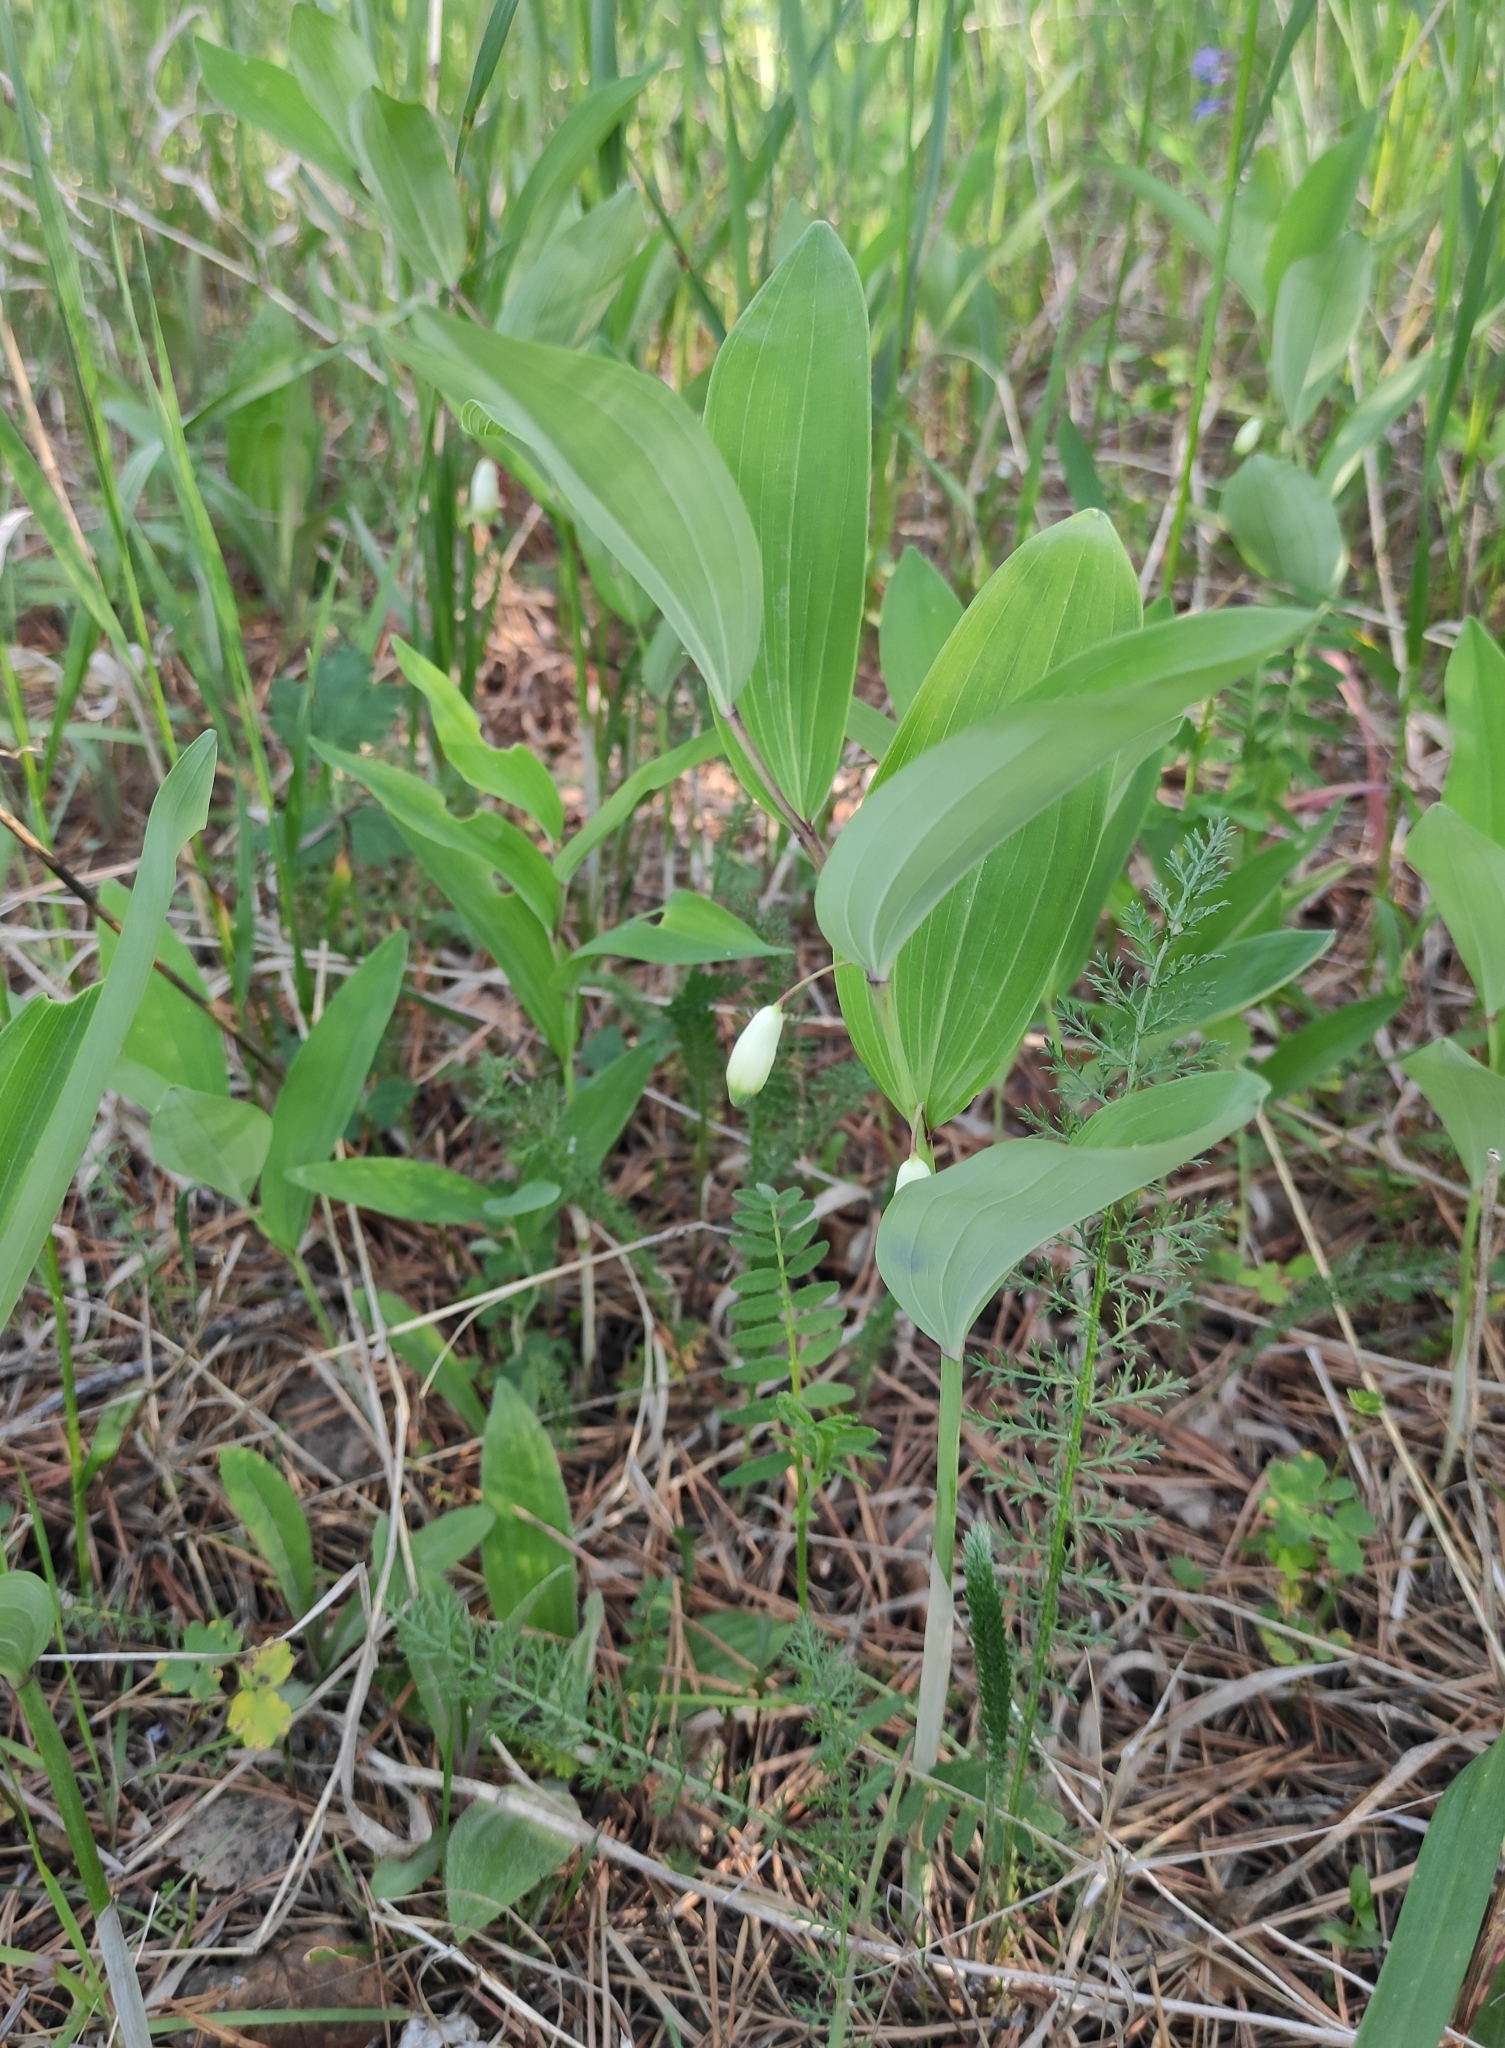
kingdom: Plantae
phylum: Tracheophyta
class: Liliopsida
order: Asparagales
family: Asparagaceae
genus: Polygonatum
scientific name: Polygonatum odoratum
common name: Angular solomon's-seal
